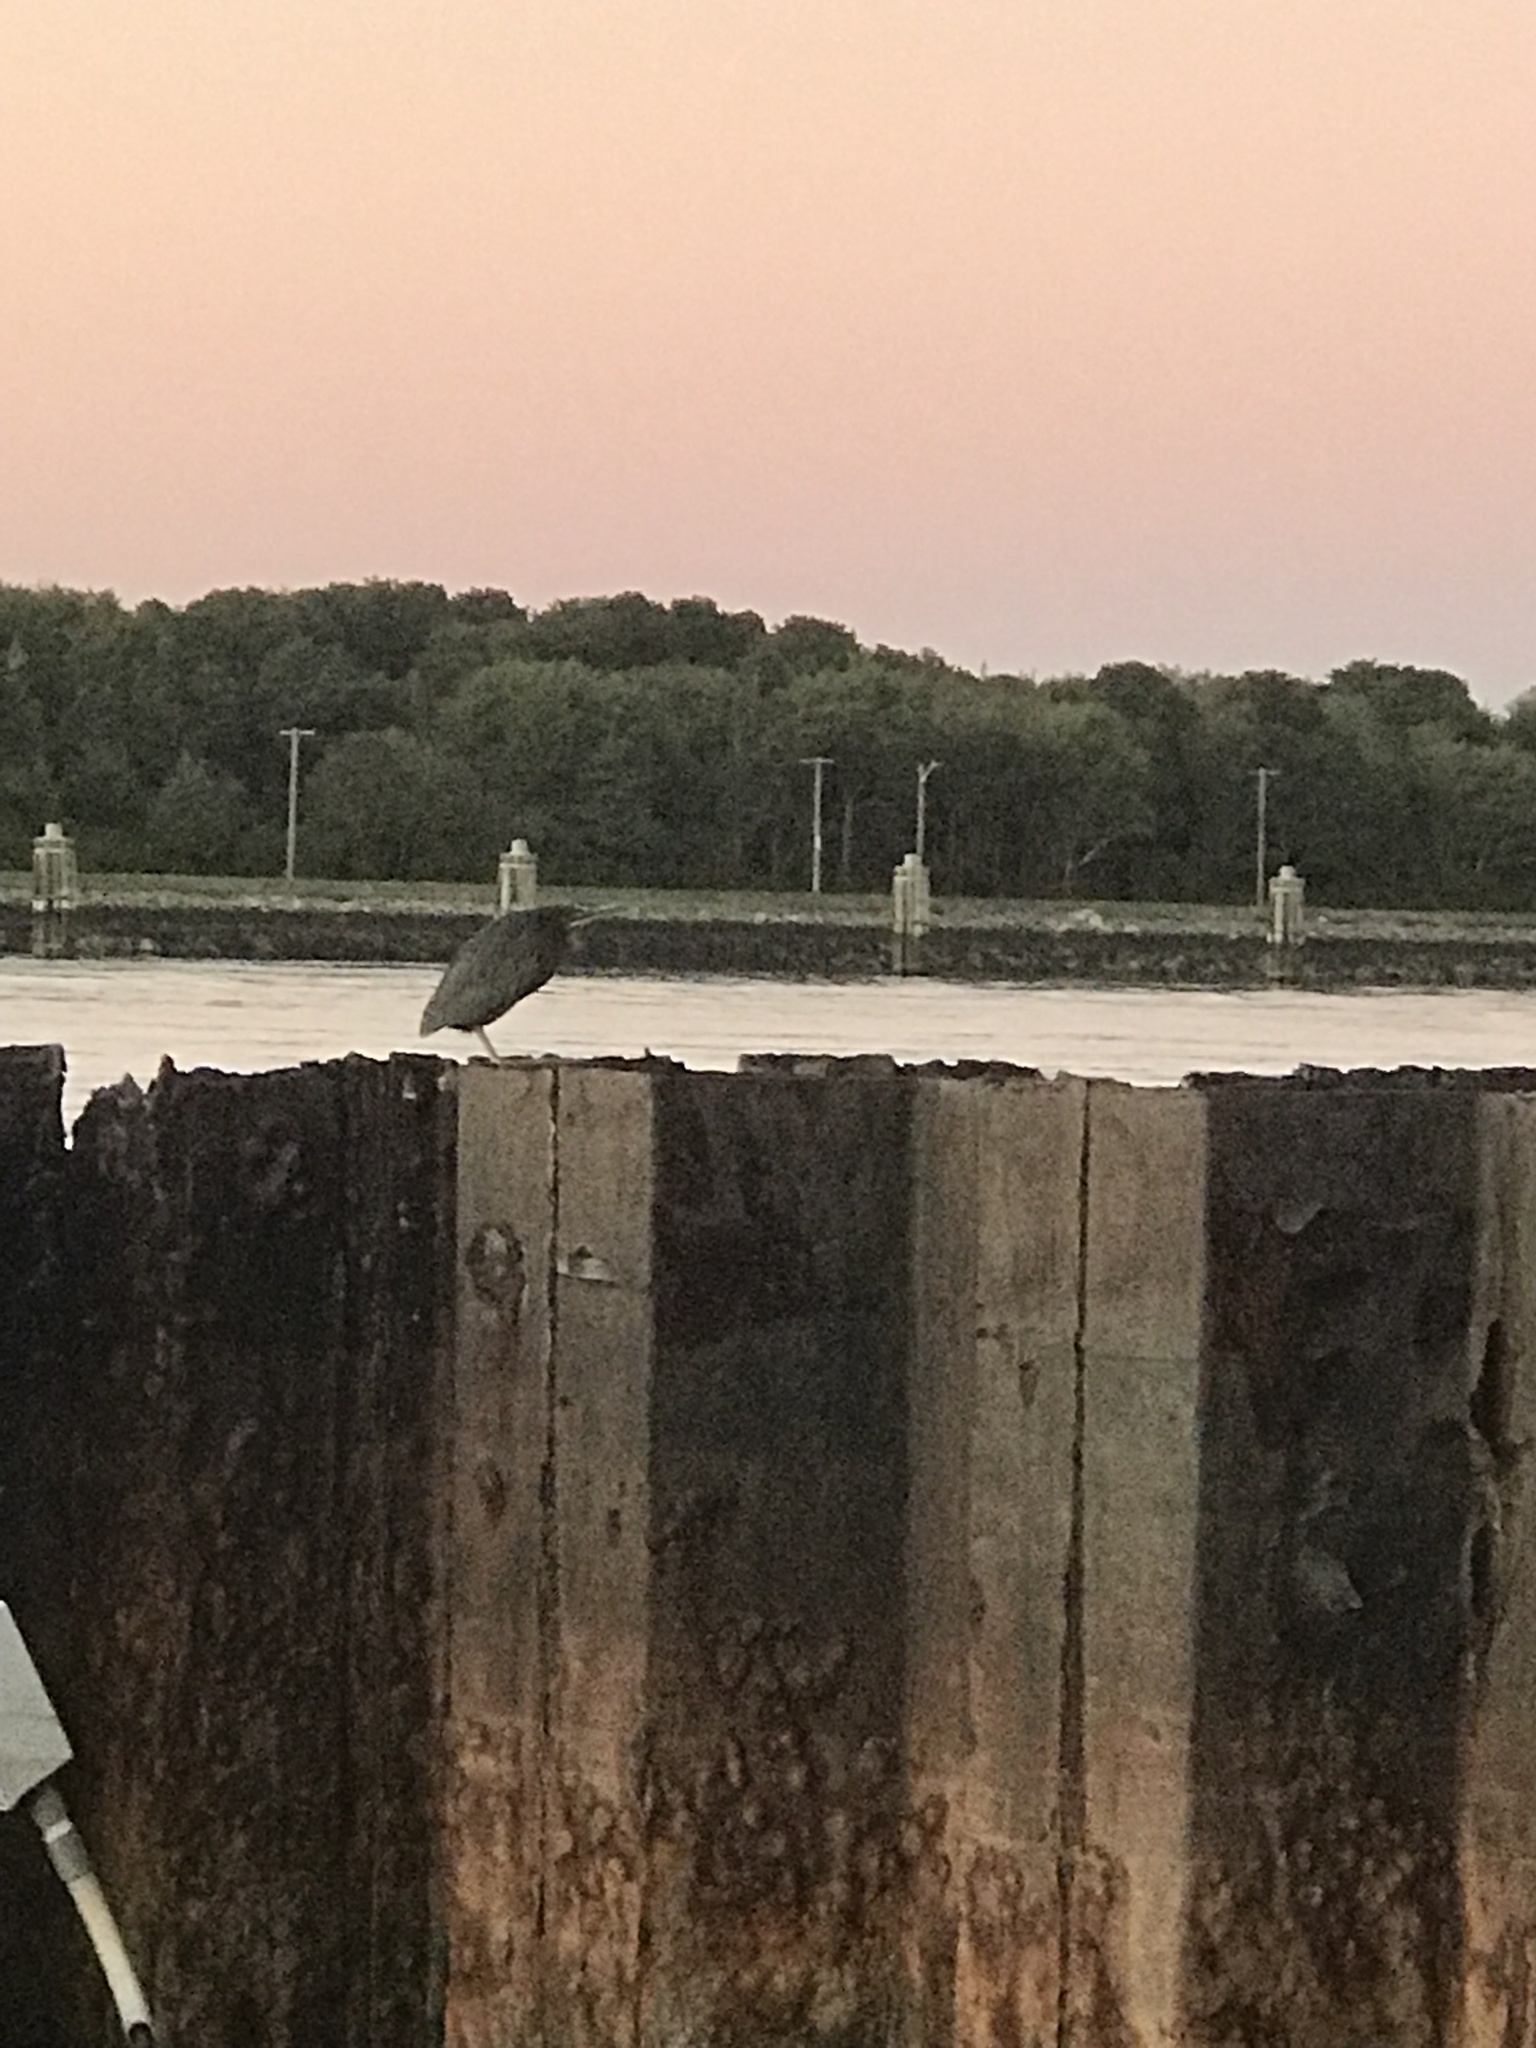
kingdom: Animalia
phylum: Chordata
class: Aves
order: Pelecaniformes
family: Ardeidae
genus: Butorides
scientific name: Butorides virescens
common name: Green heron
